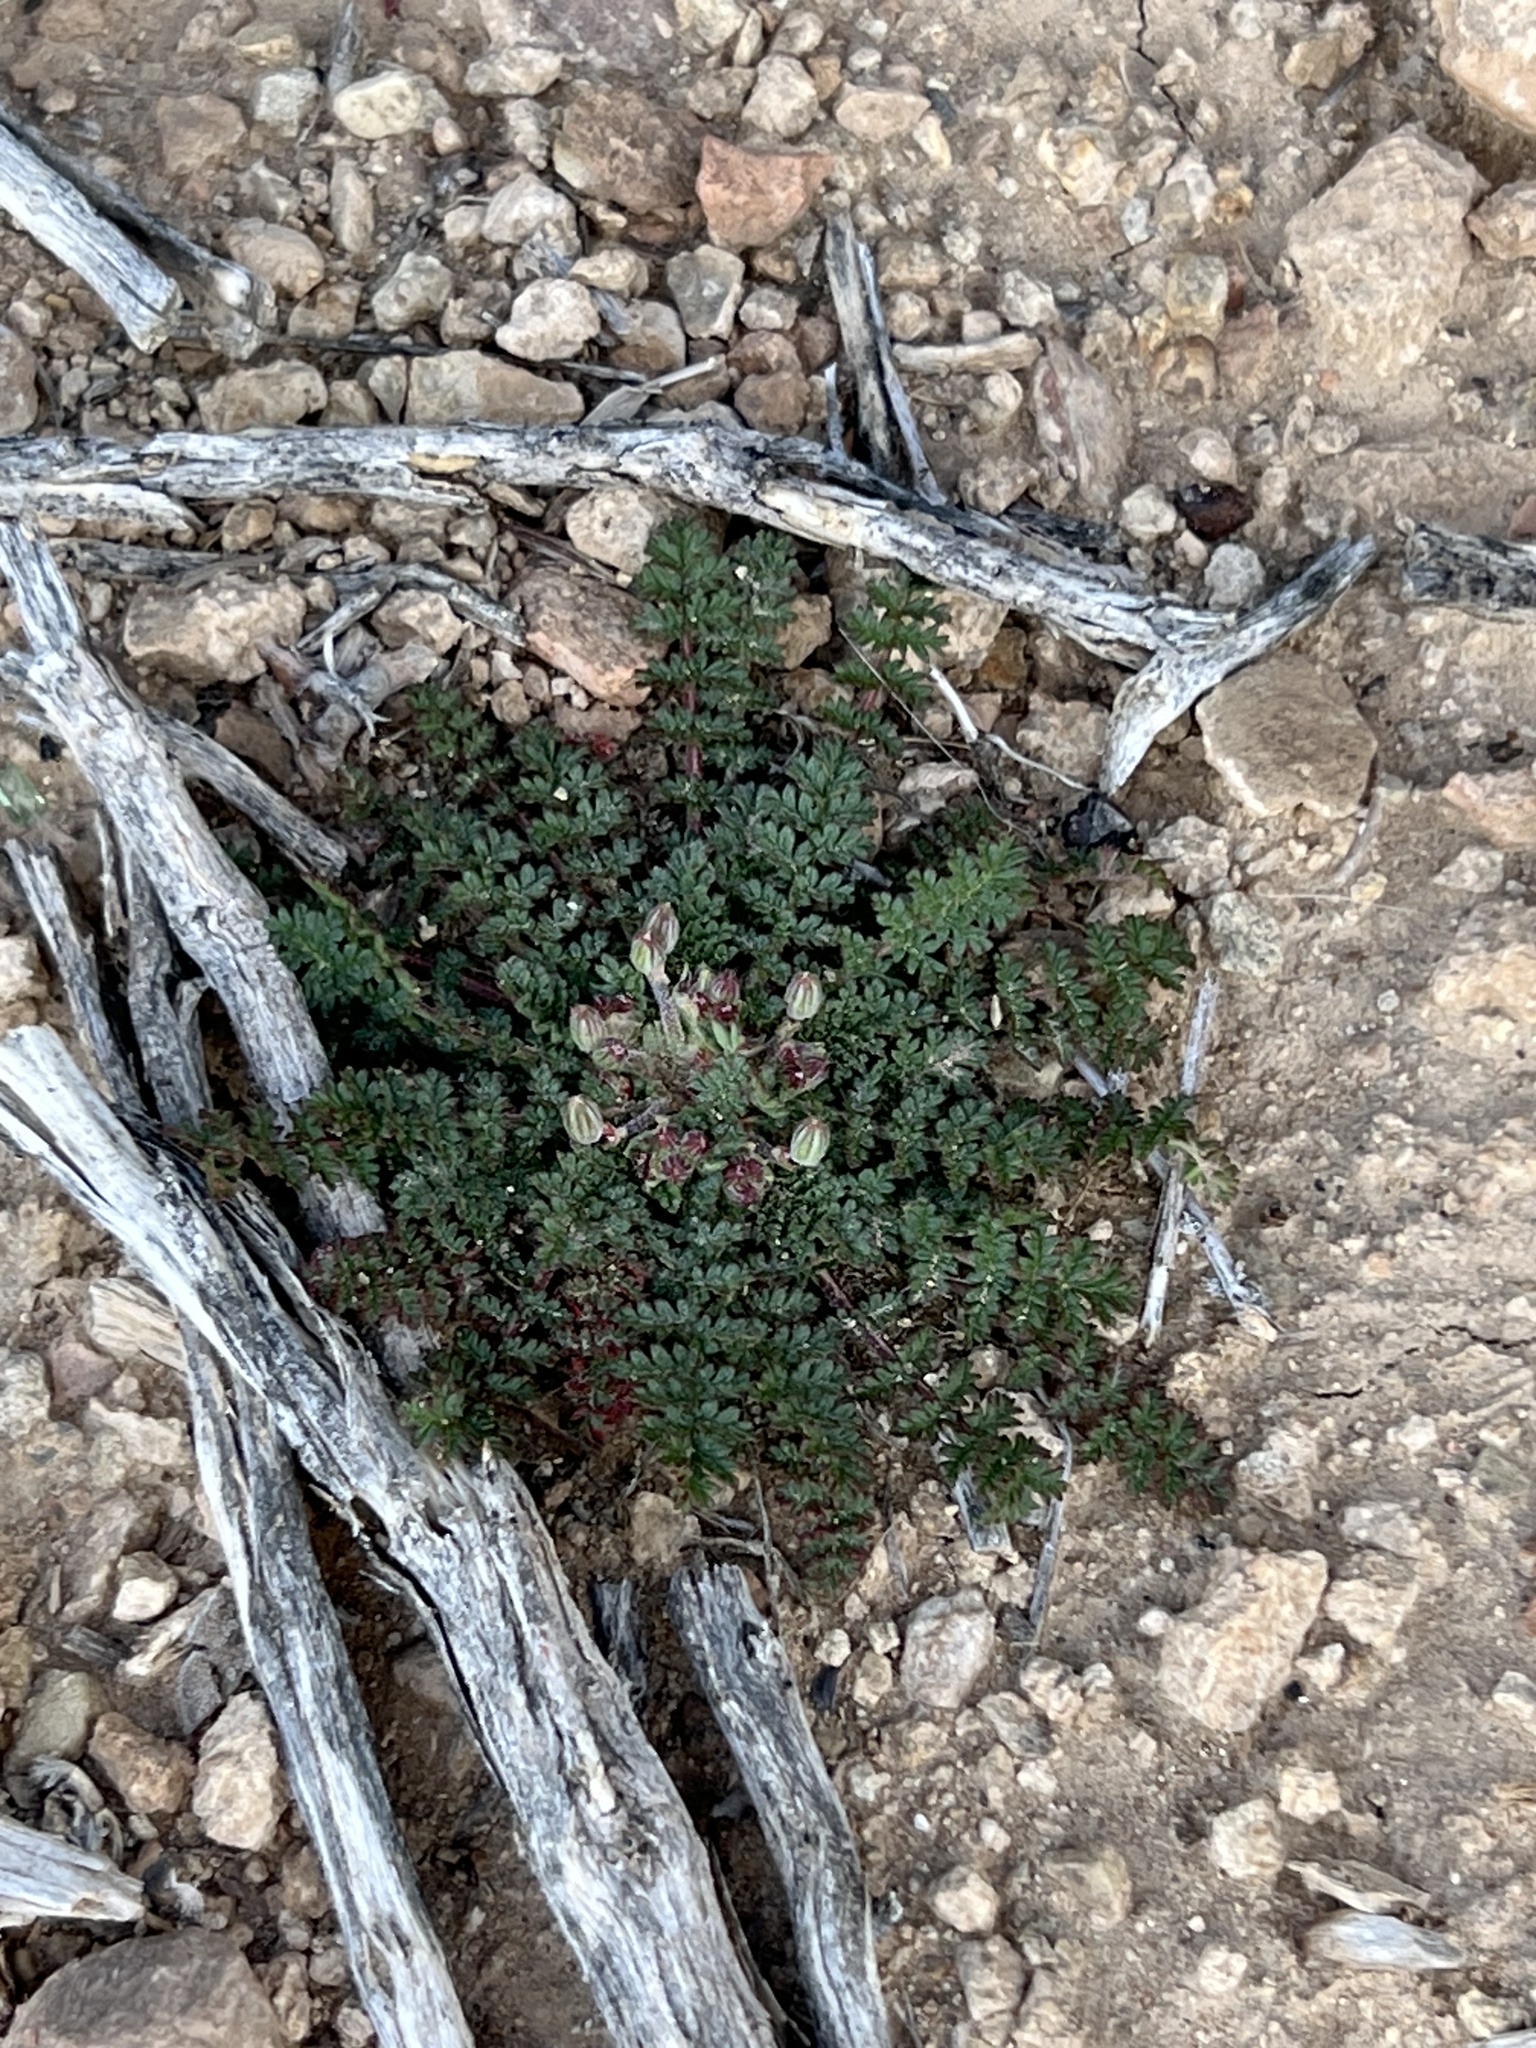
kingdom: Plantae
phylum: Tracheophyta
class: Magnoliopsida
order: Geraniales
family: Geraniaceae
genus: Erodium
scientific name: Erodium cicutarium
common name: Common stork's-bill
